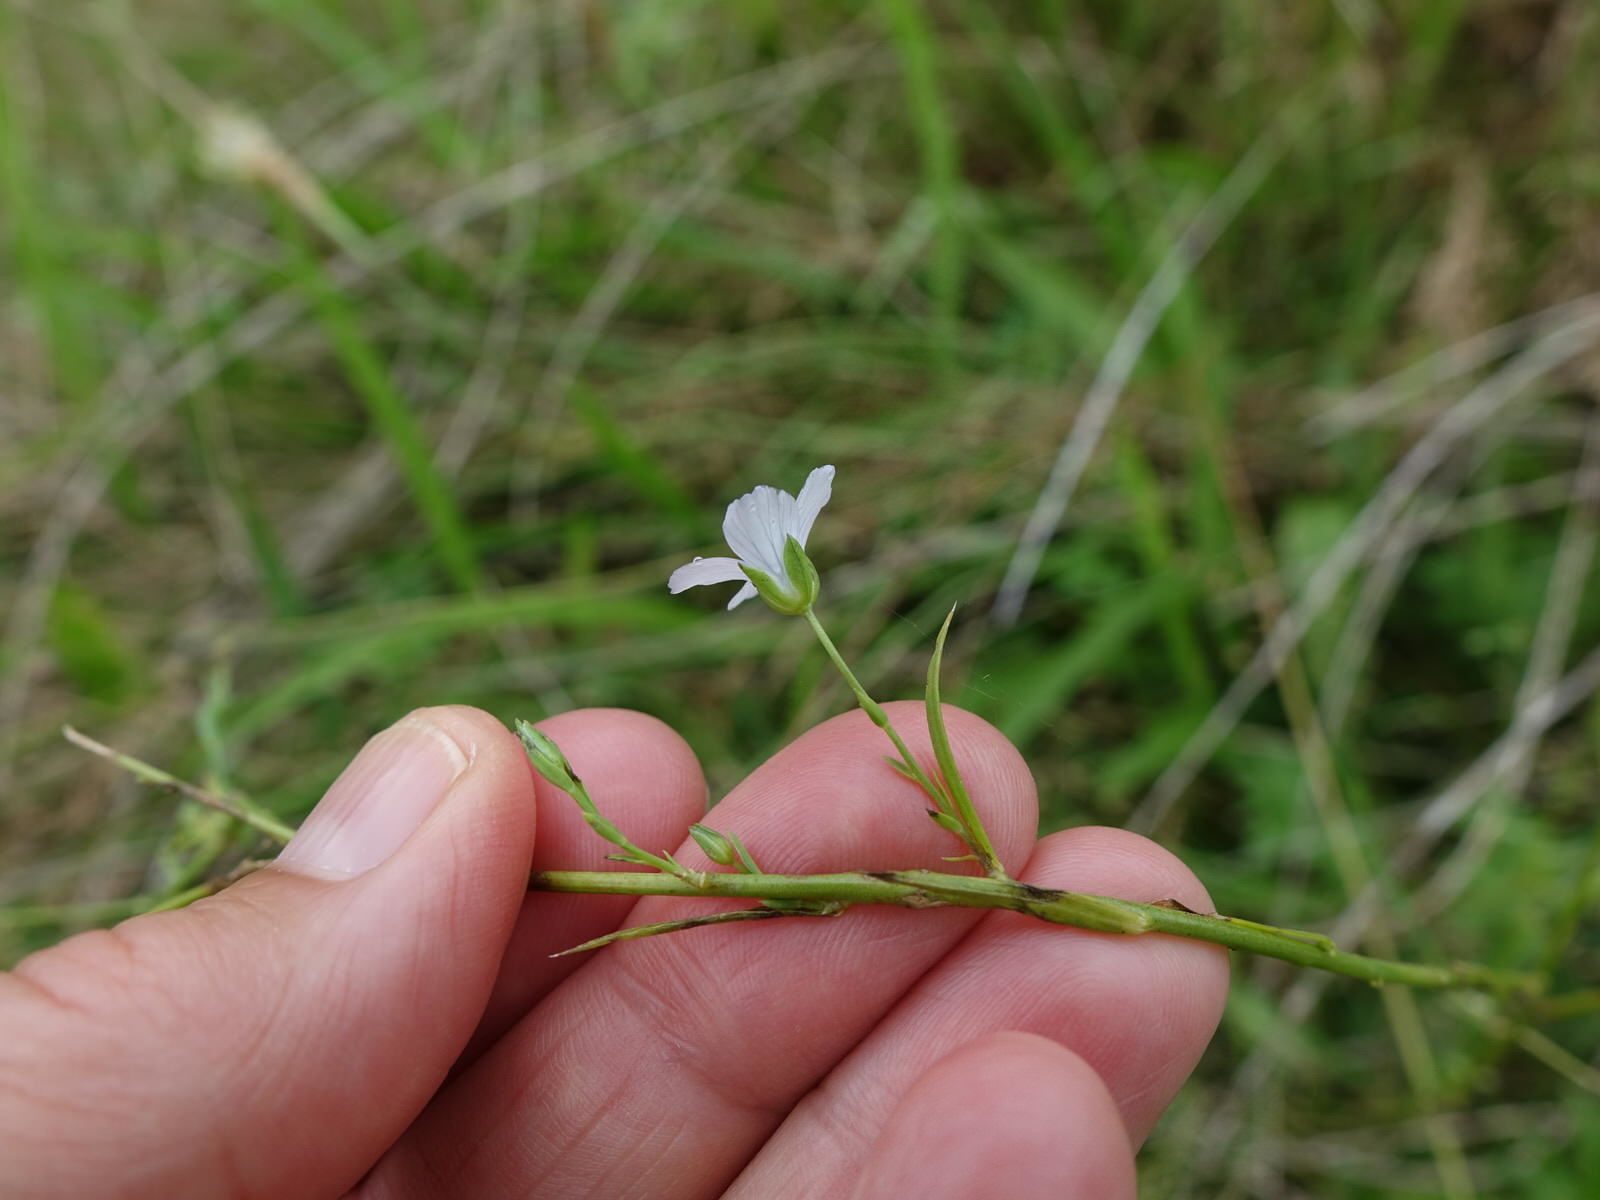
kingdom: Plantae
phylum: Tracheophyta
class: Magnoliopsida
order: Malpighiales
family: Linaceae
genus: Linum
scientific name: Linum bienne
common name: Pale flax
